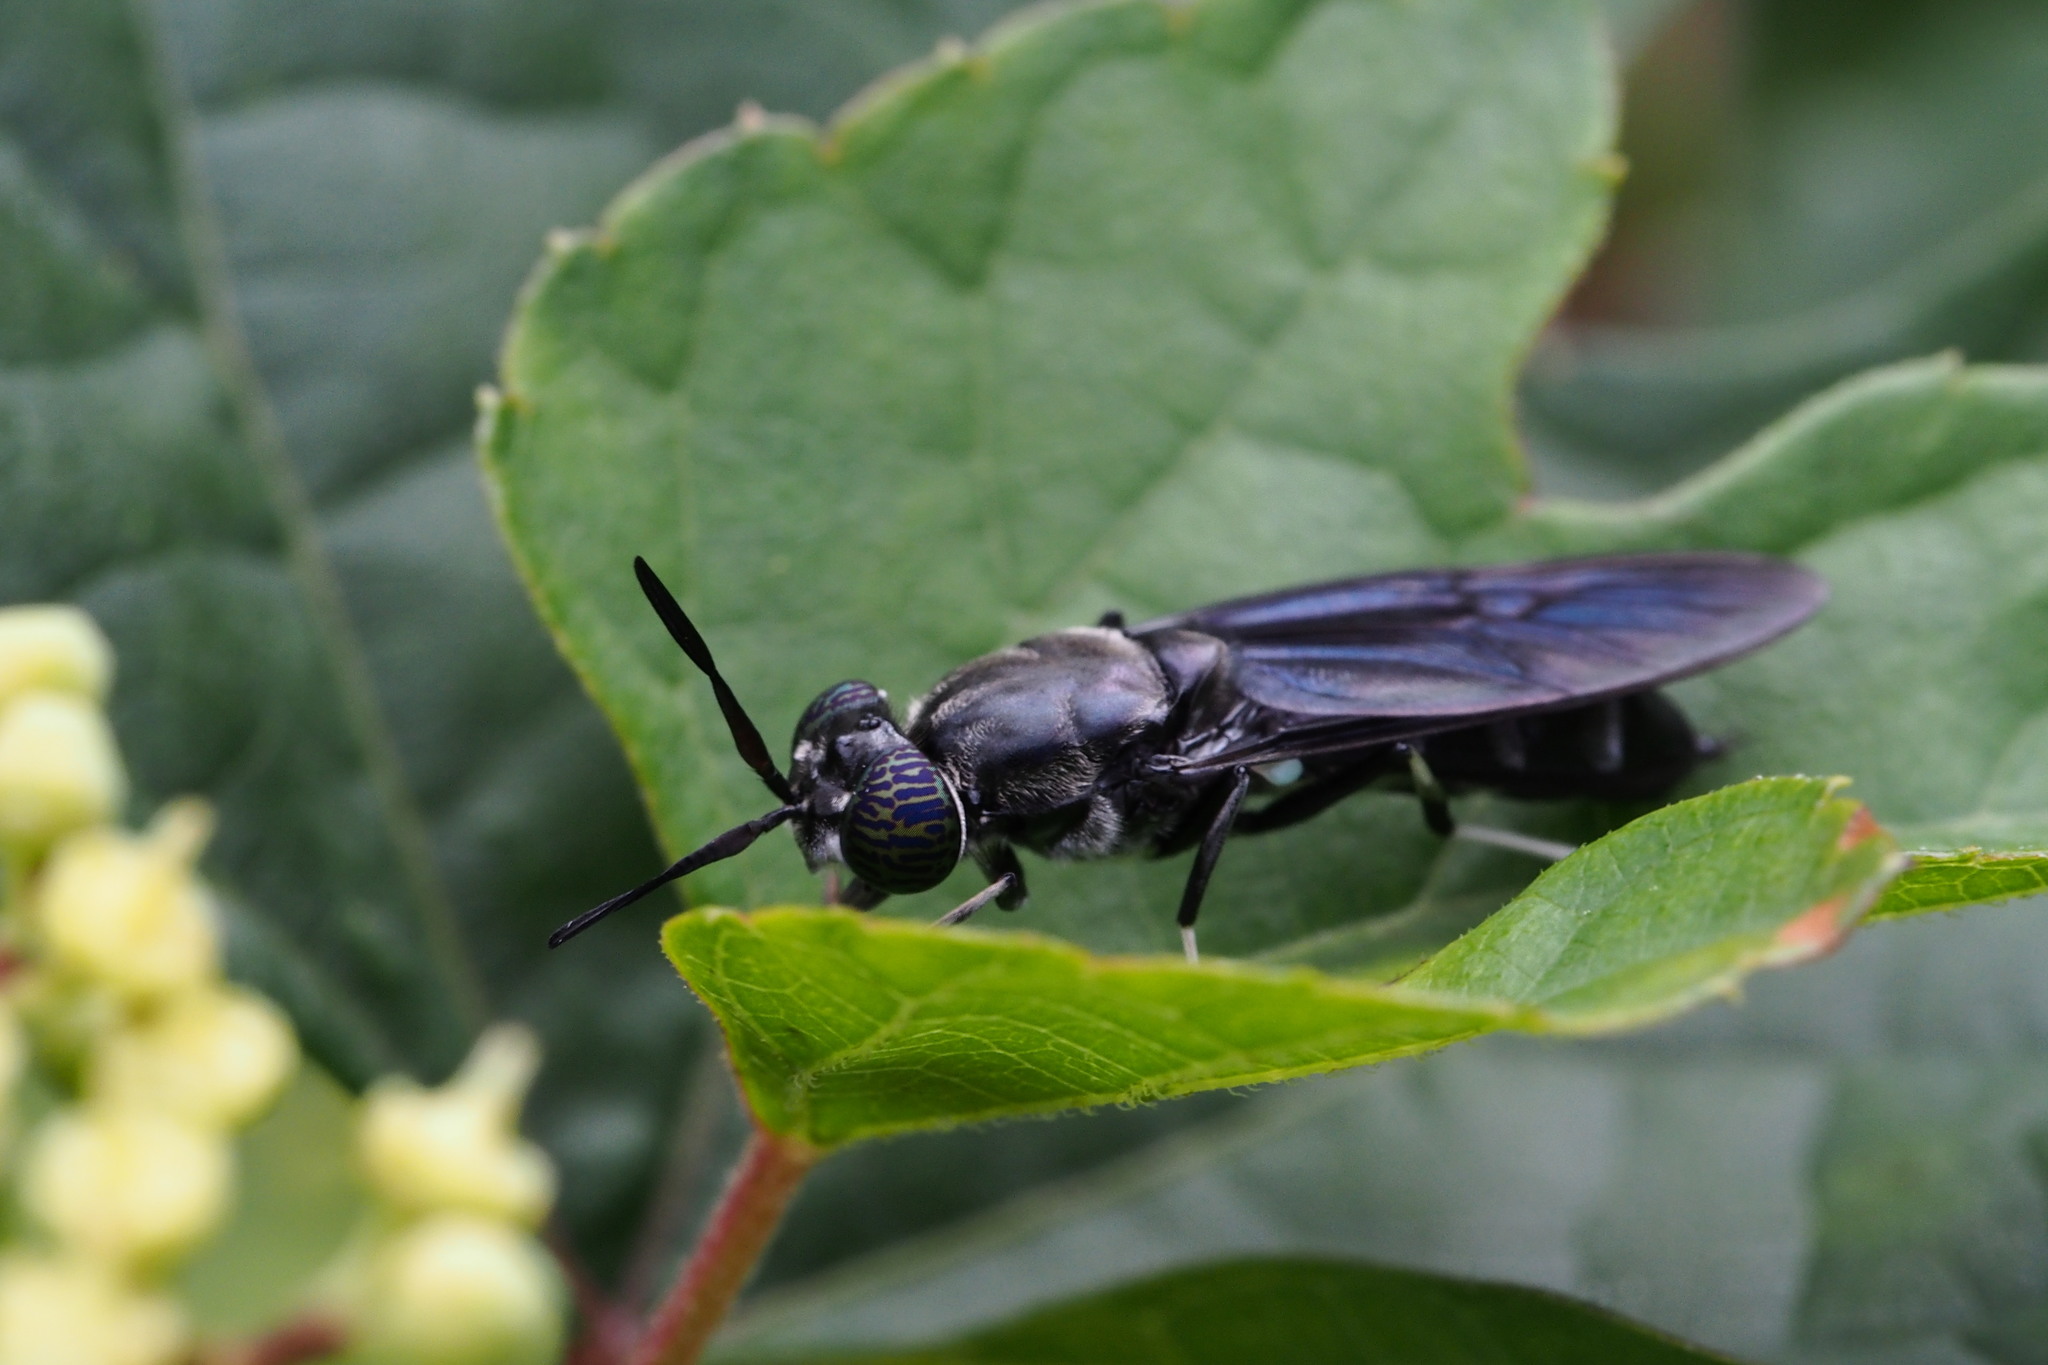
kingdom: Animalia
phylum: Arthropoda
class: Insecta
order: Diptera
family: Stratiomyidae
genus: Hermetia
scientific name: Hermetia illucens
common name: Black soldier fly
